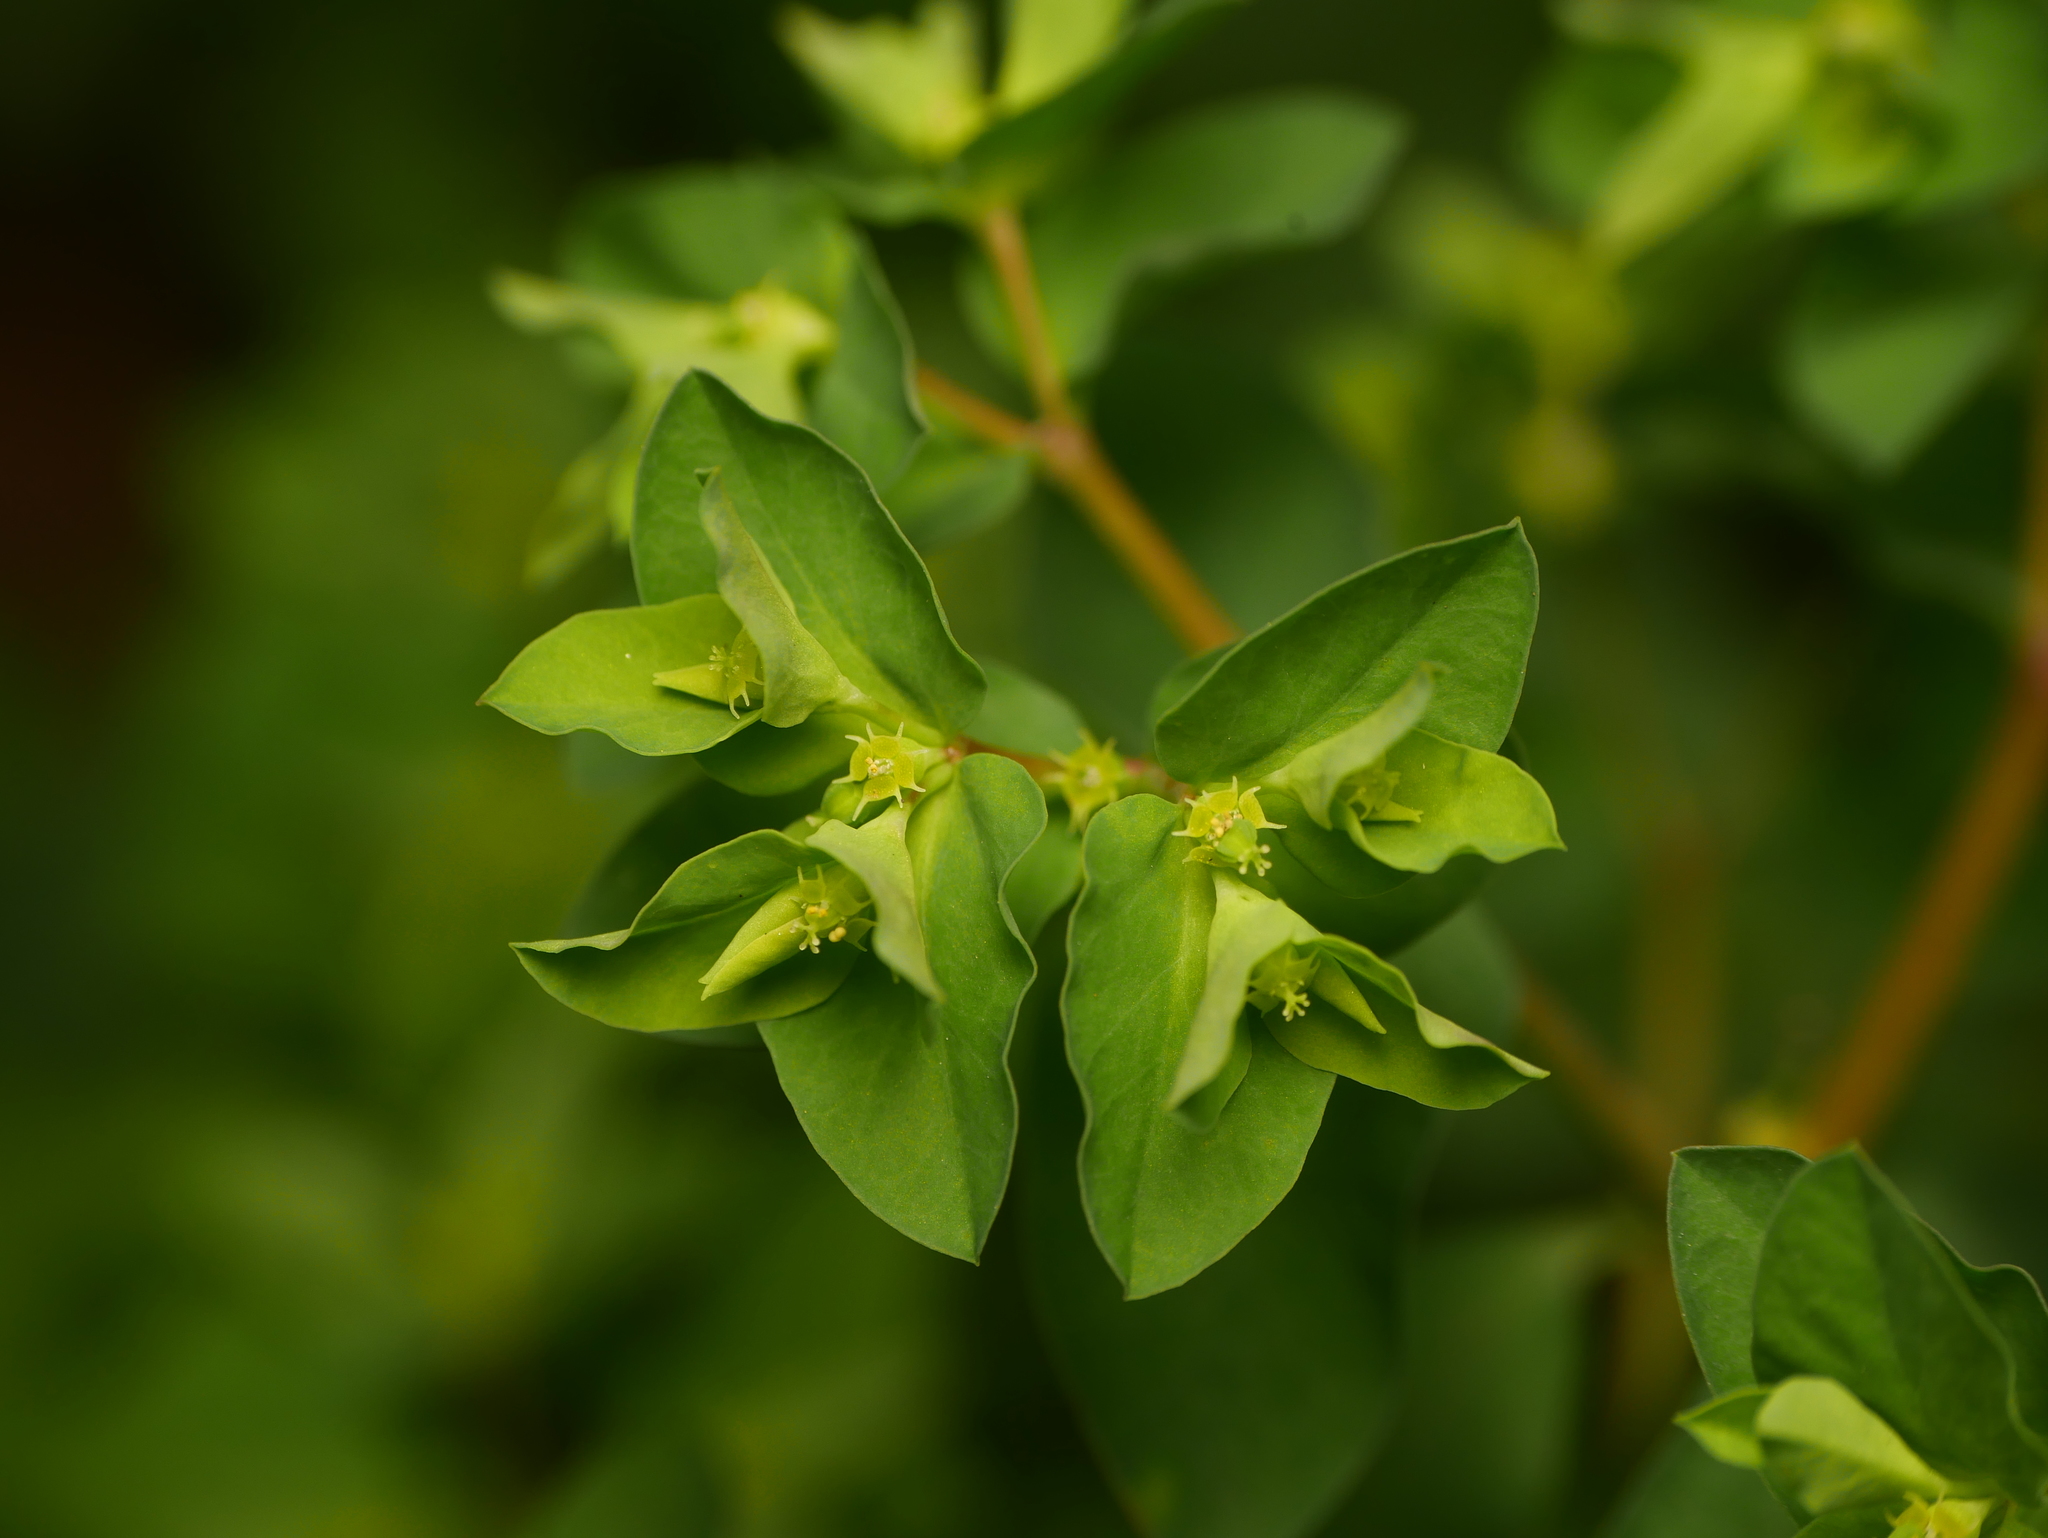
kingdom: Plantae
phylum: Tracheophyta
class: Magnoliopsida
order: Malpighiales
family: Euphorbiaceae
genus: Euphorbia
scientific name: Euphorbia peplus
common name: Petty spurge
